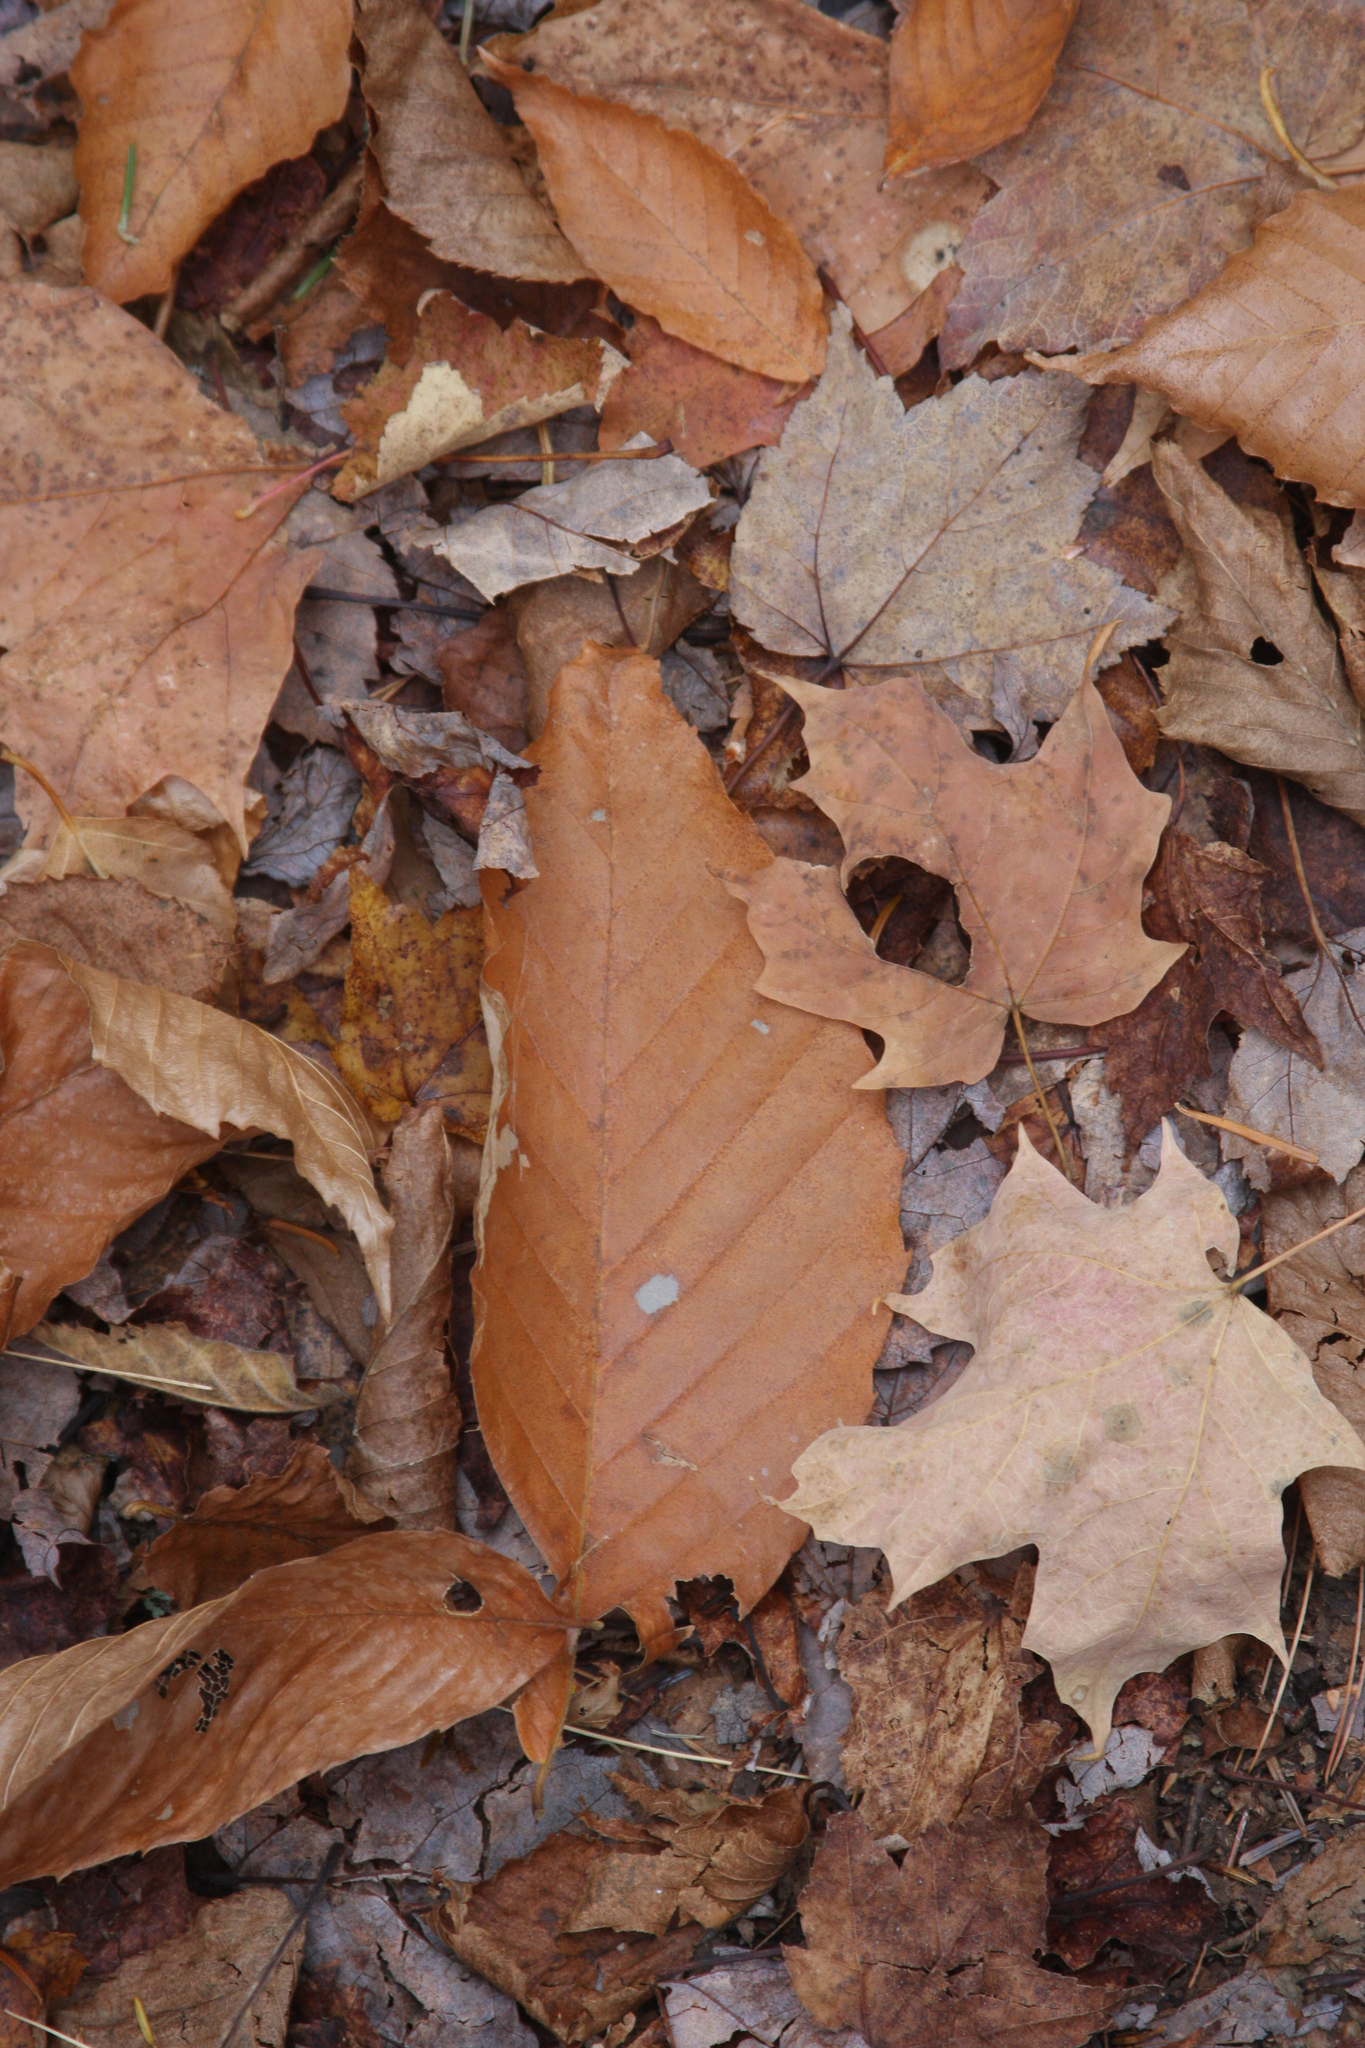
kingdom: Plantae
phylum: Tracheophyta
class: Magnoliopsida
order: Fagales
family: Fagaceae
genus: Fagus
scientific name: Fagus grandifolia
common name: American beech
